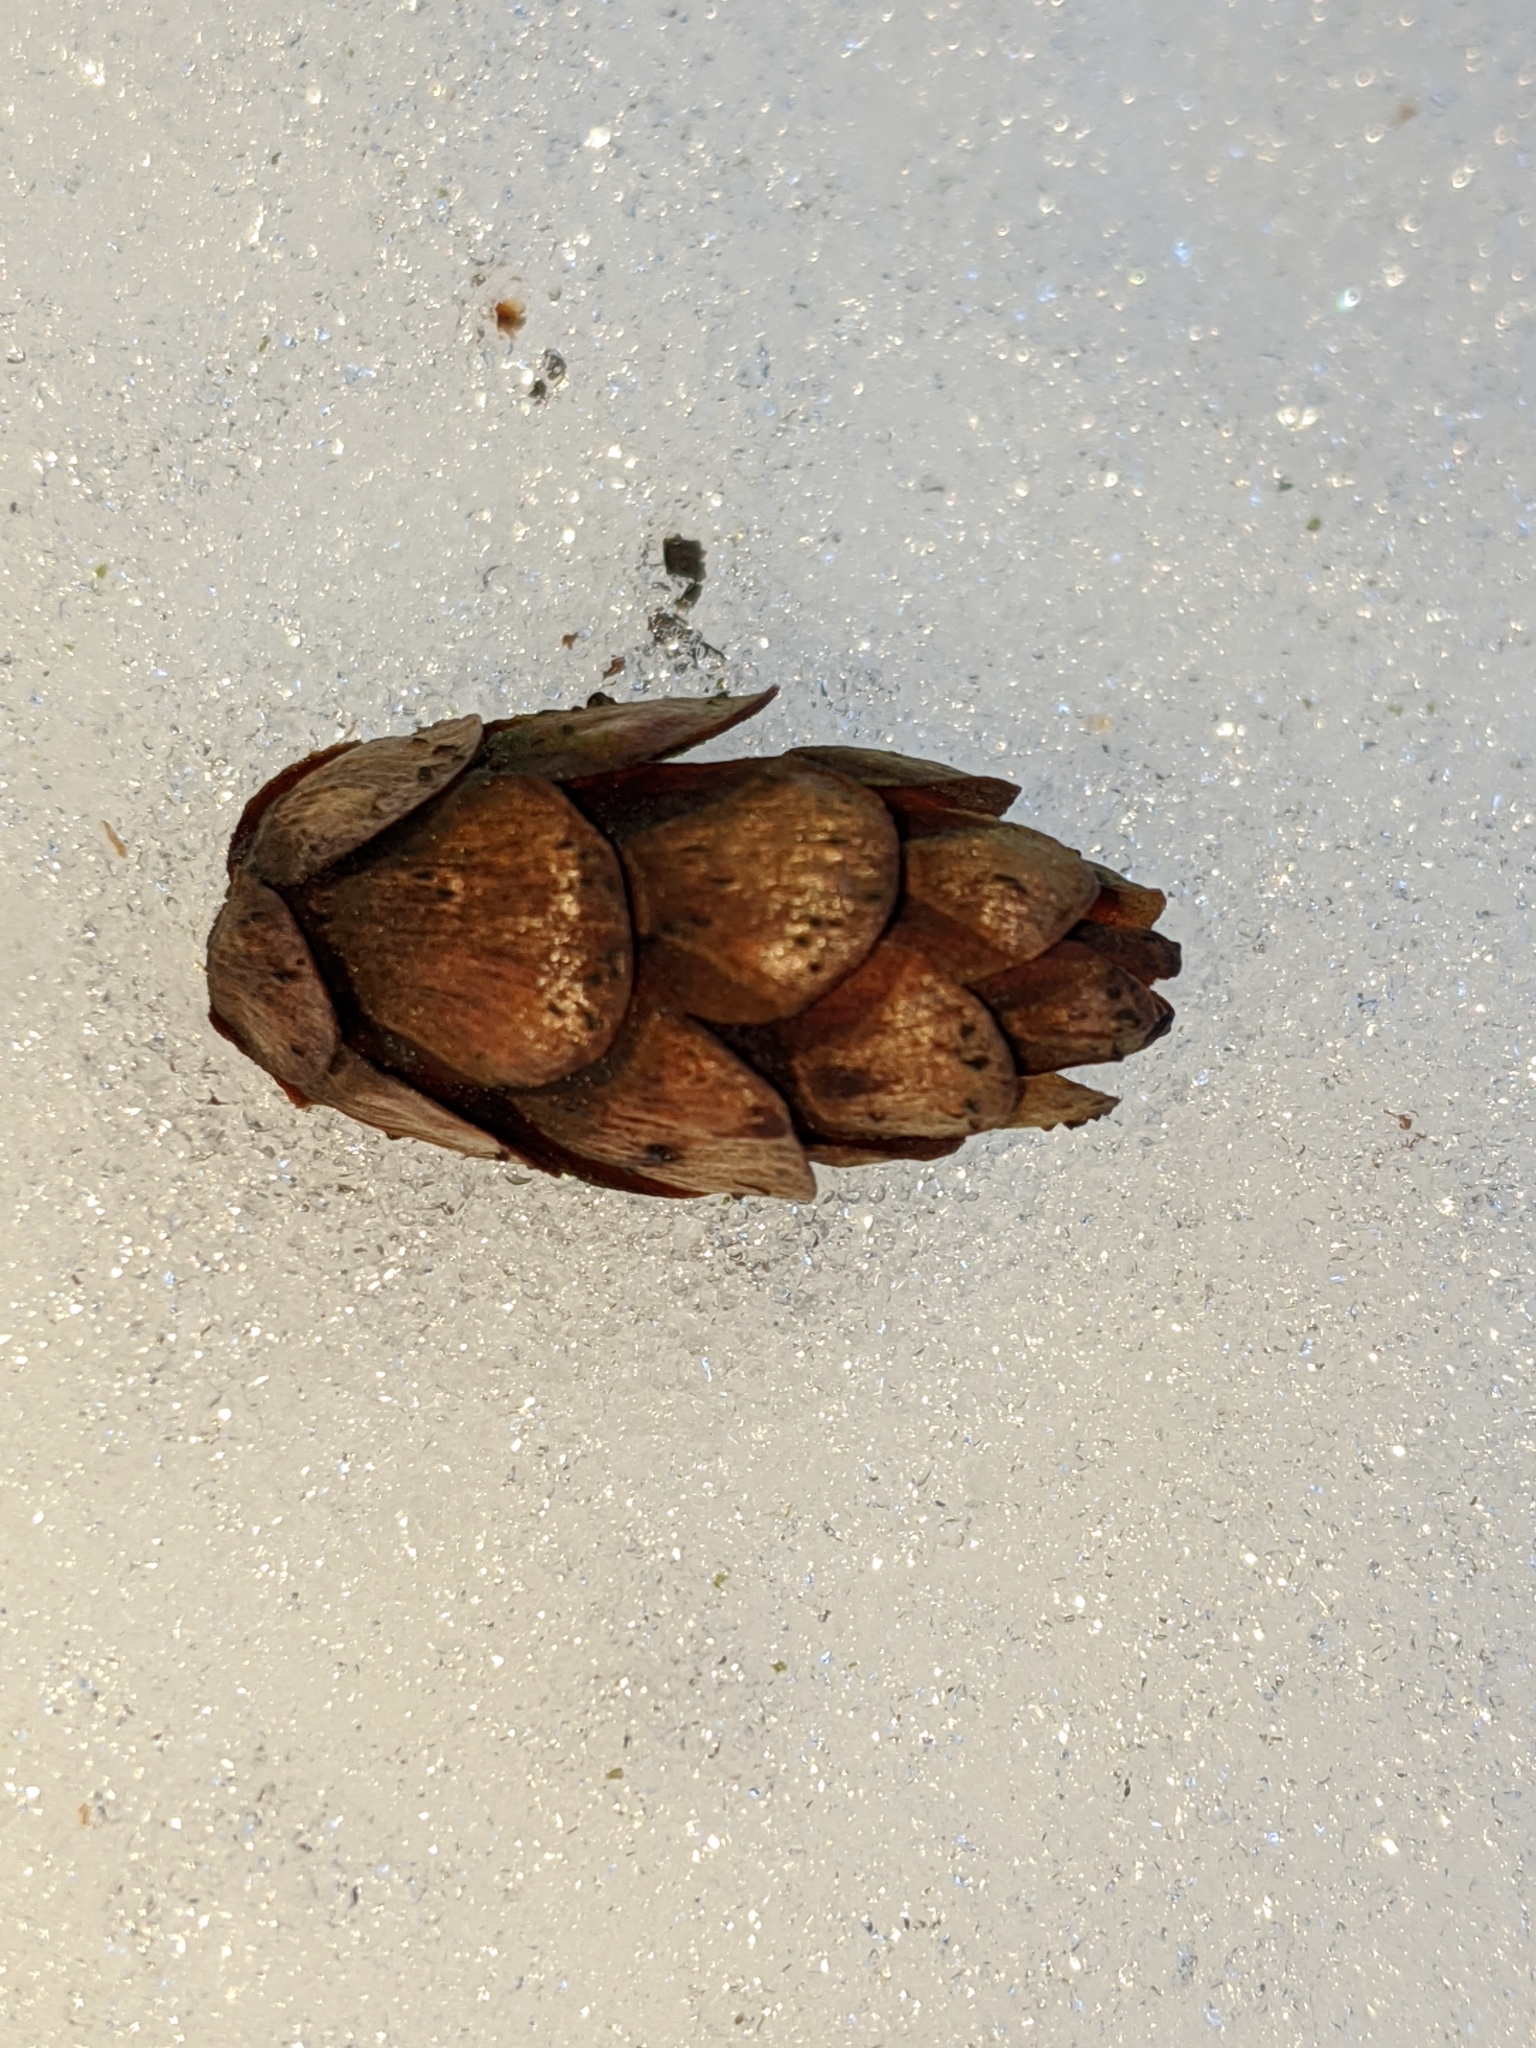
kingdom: Plantae
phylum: Tracheophyta
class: Pinopsida
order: Pinales
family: Pinaceae
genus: Tsuga
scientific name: Tsuga heterophylla
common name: Western hemlock
